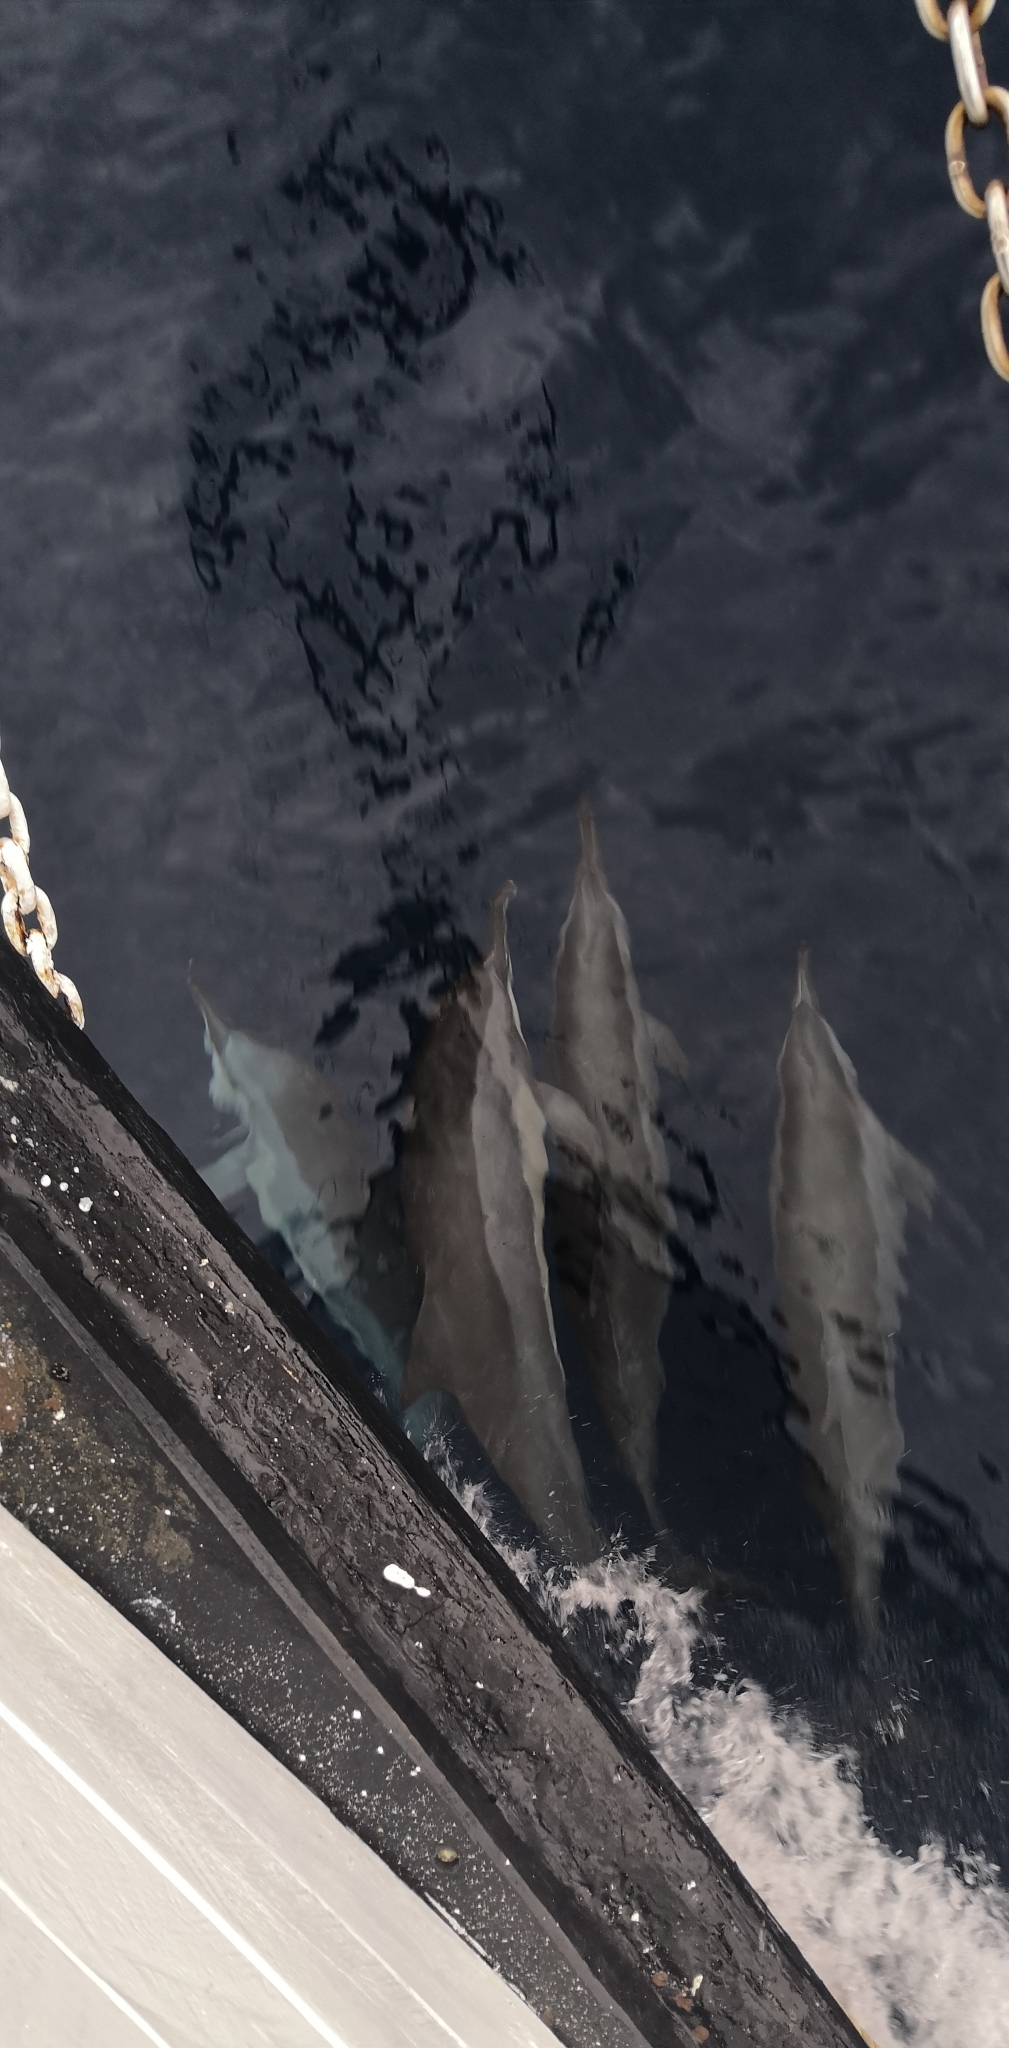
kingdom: Animalia
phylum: Chordata
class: Mammalia
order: Cetacea
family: Delphinidae
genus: Stenella
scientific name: Stenella longirostris
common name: Spinner dolphin
